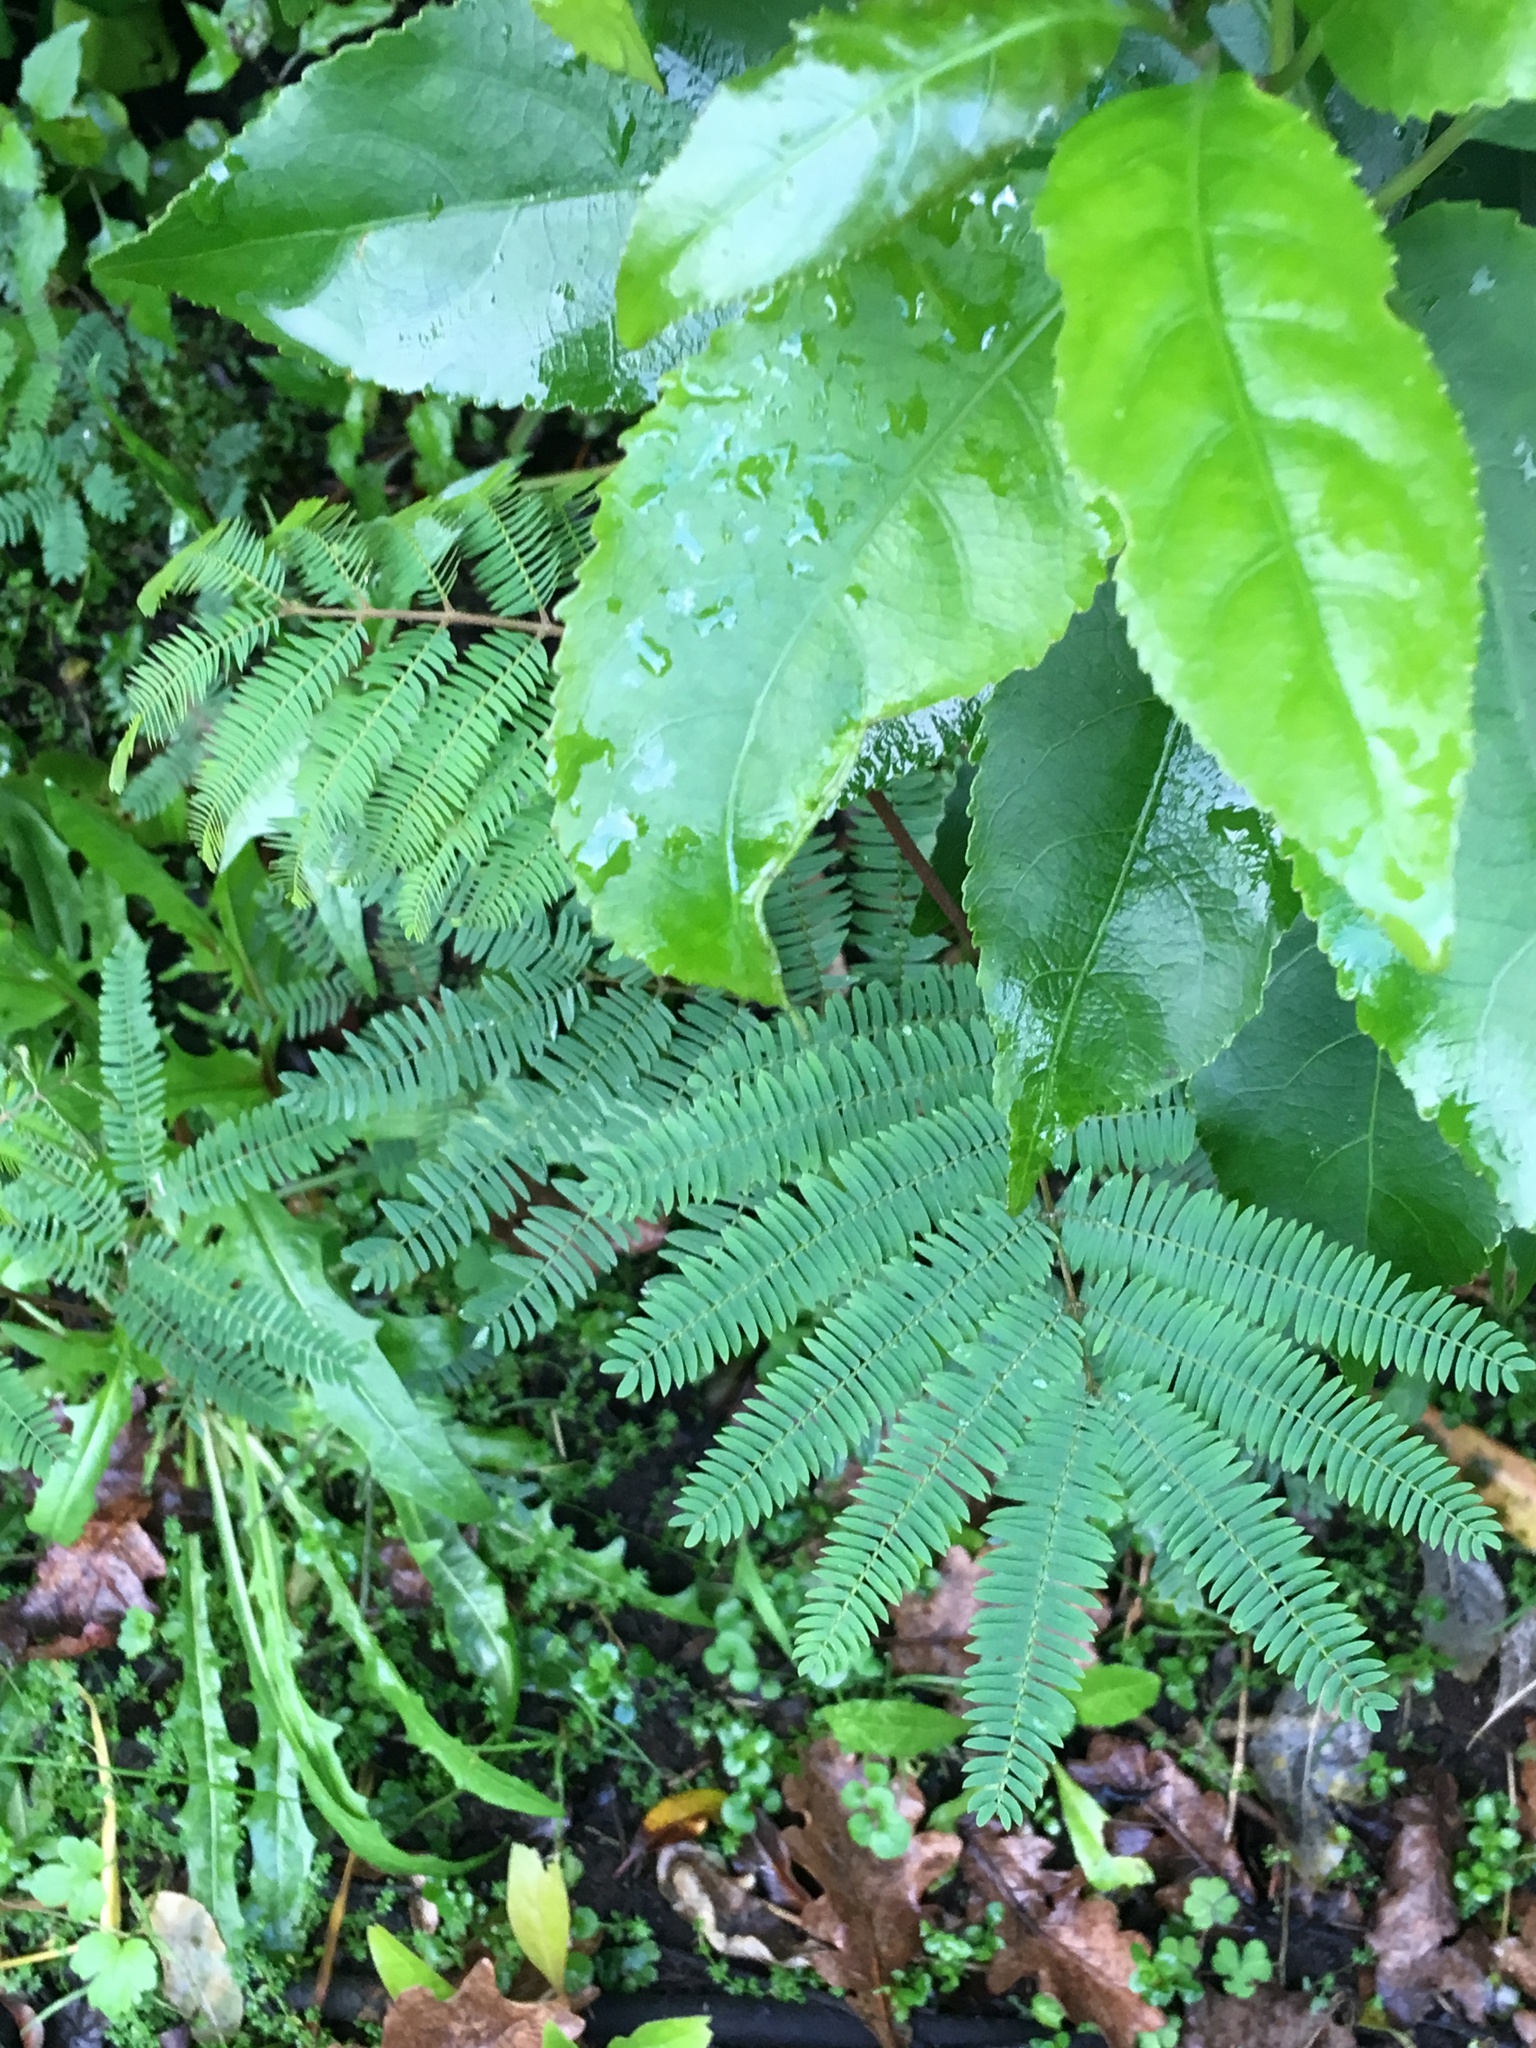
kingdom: Plantae
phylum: Tracheophyta
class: Magnoliopsida
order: Fabales
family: Fabaceae
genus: Paraserianthes
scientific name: Paraserianthes lophantha
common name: Plume albizia
